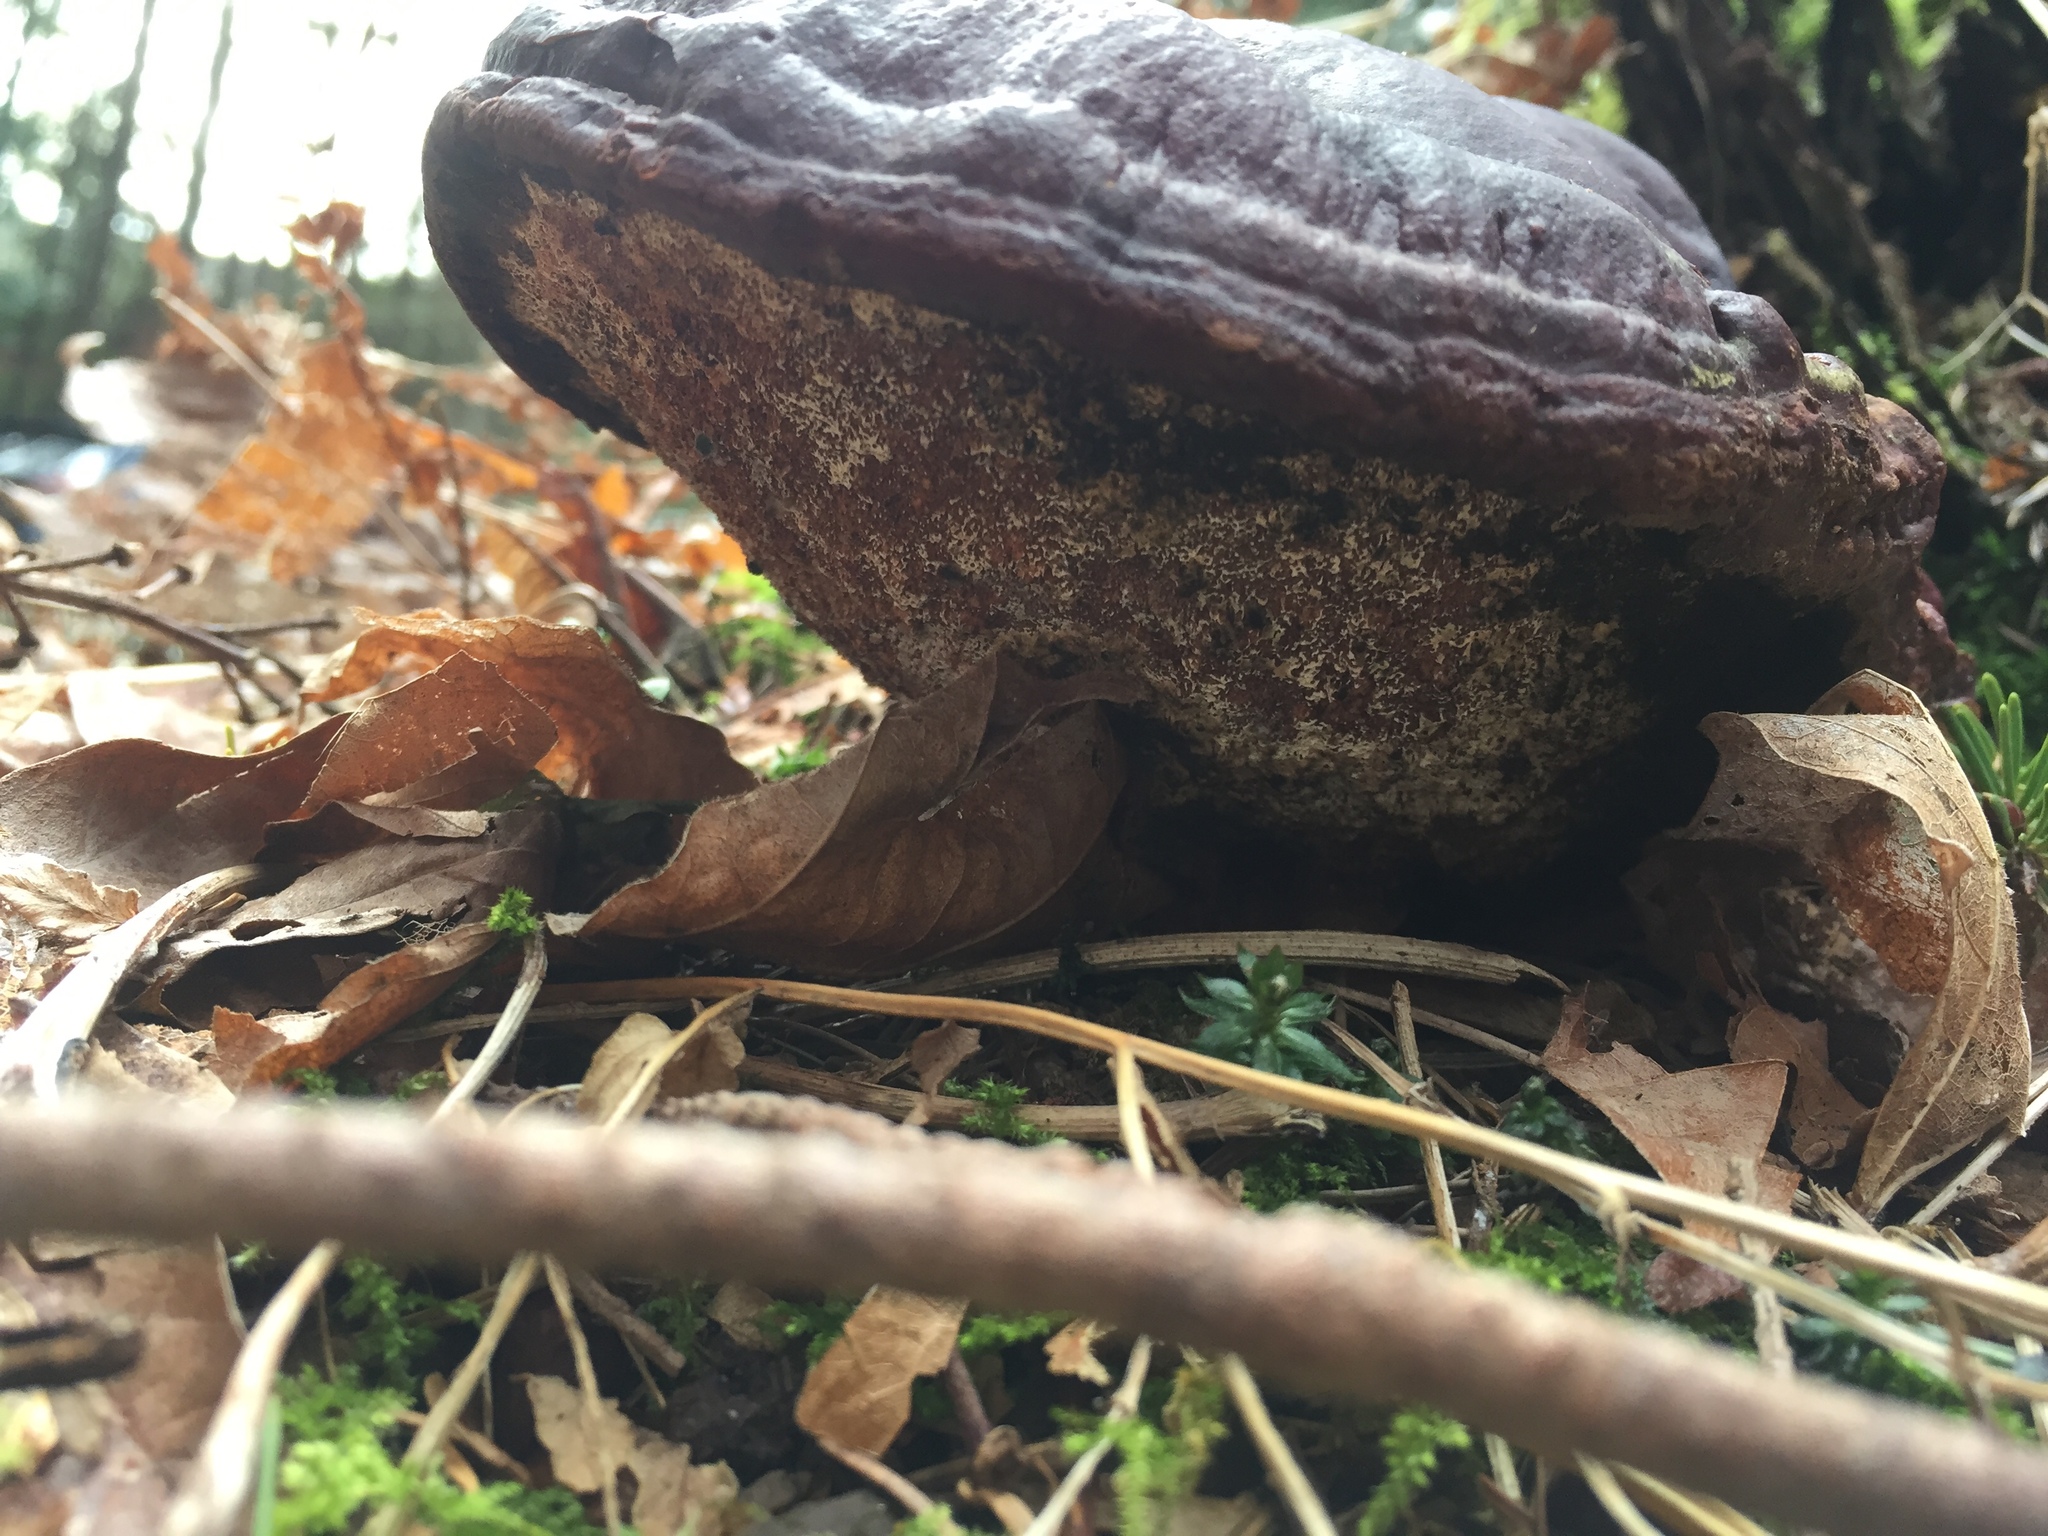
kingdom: Fungi
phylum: Basidiomycota
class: Agaricomycetes
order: Polyporales
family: Polyporaceae
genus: Ganoderma
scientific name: Ganoderma oregonense
